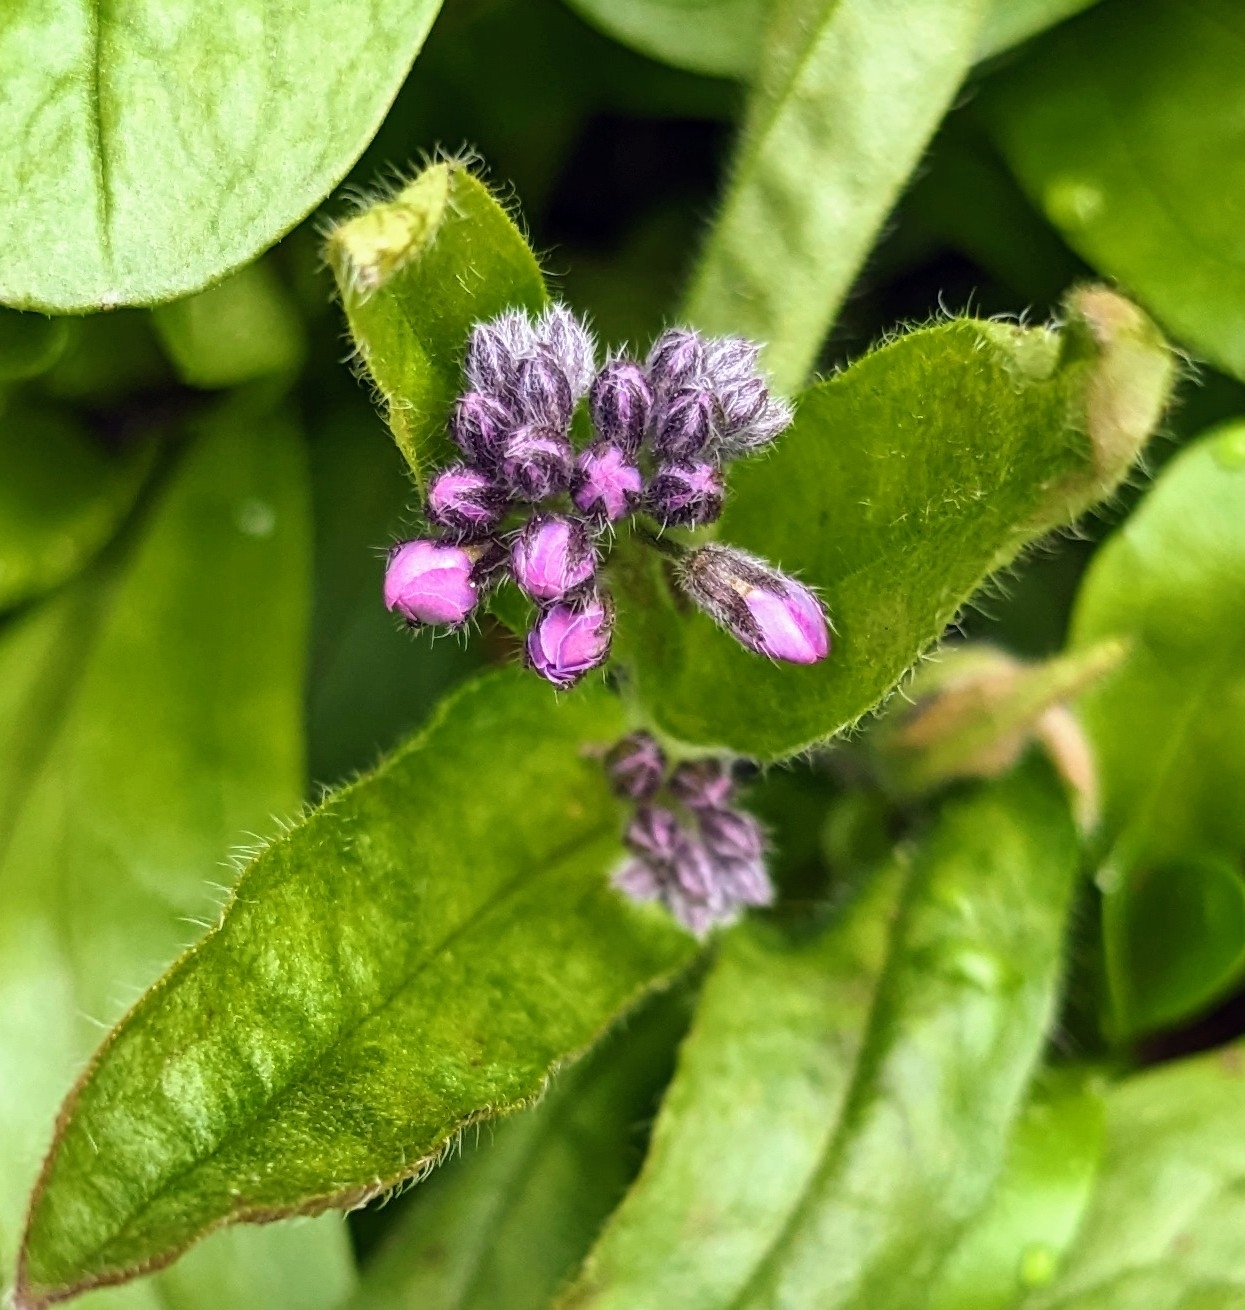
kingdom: Plantae
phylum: Tracheophyta
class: Magnoliopsida
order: Boraginales
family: Boraginaceae
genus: Myosotis
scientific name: Myosotis sylvatica
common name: Wood forget-me-not
